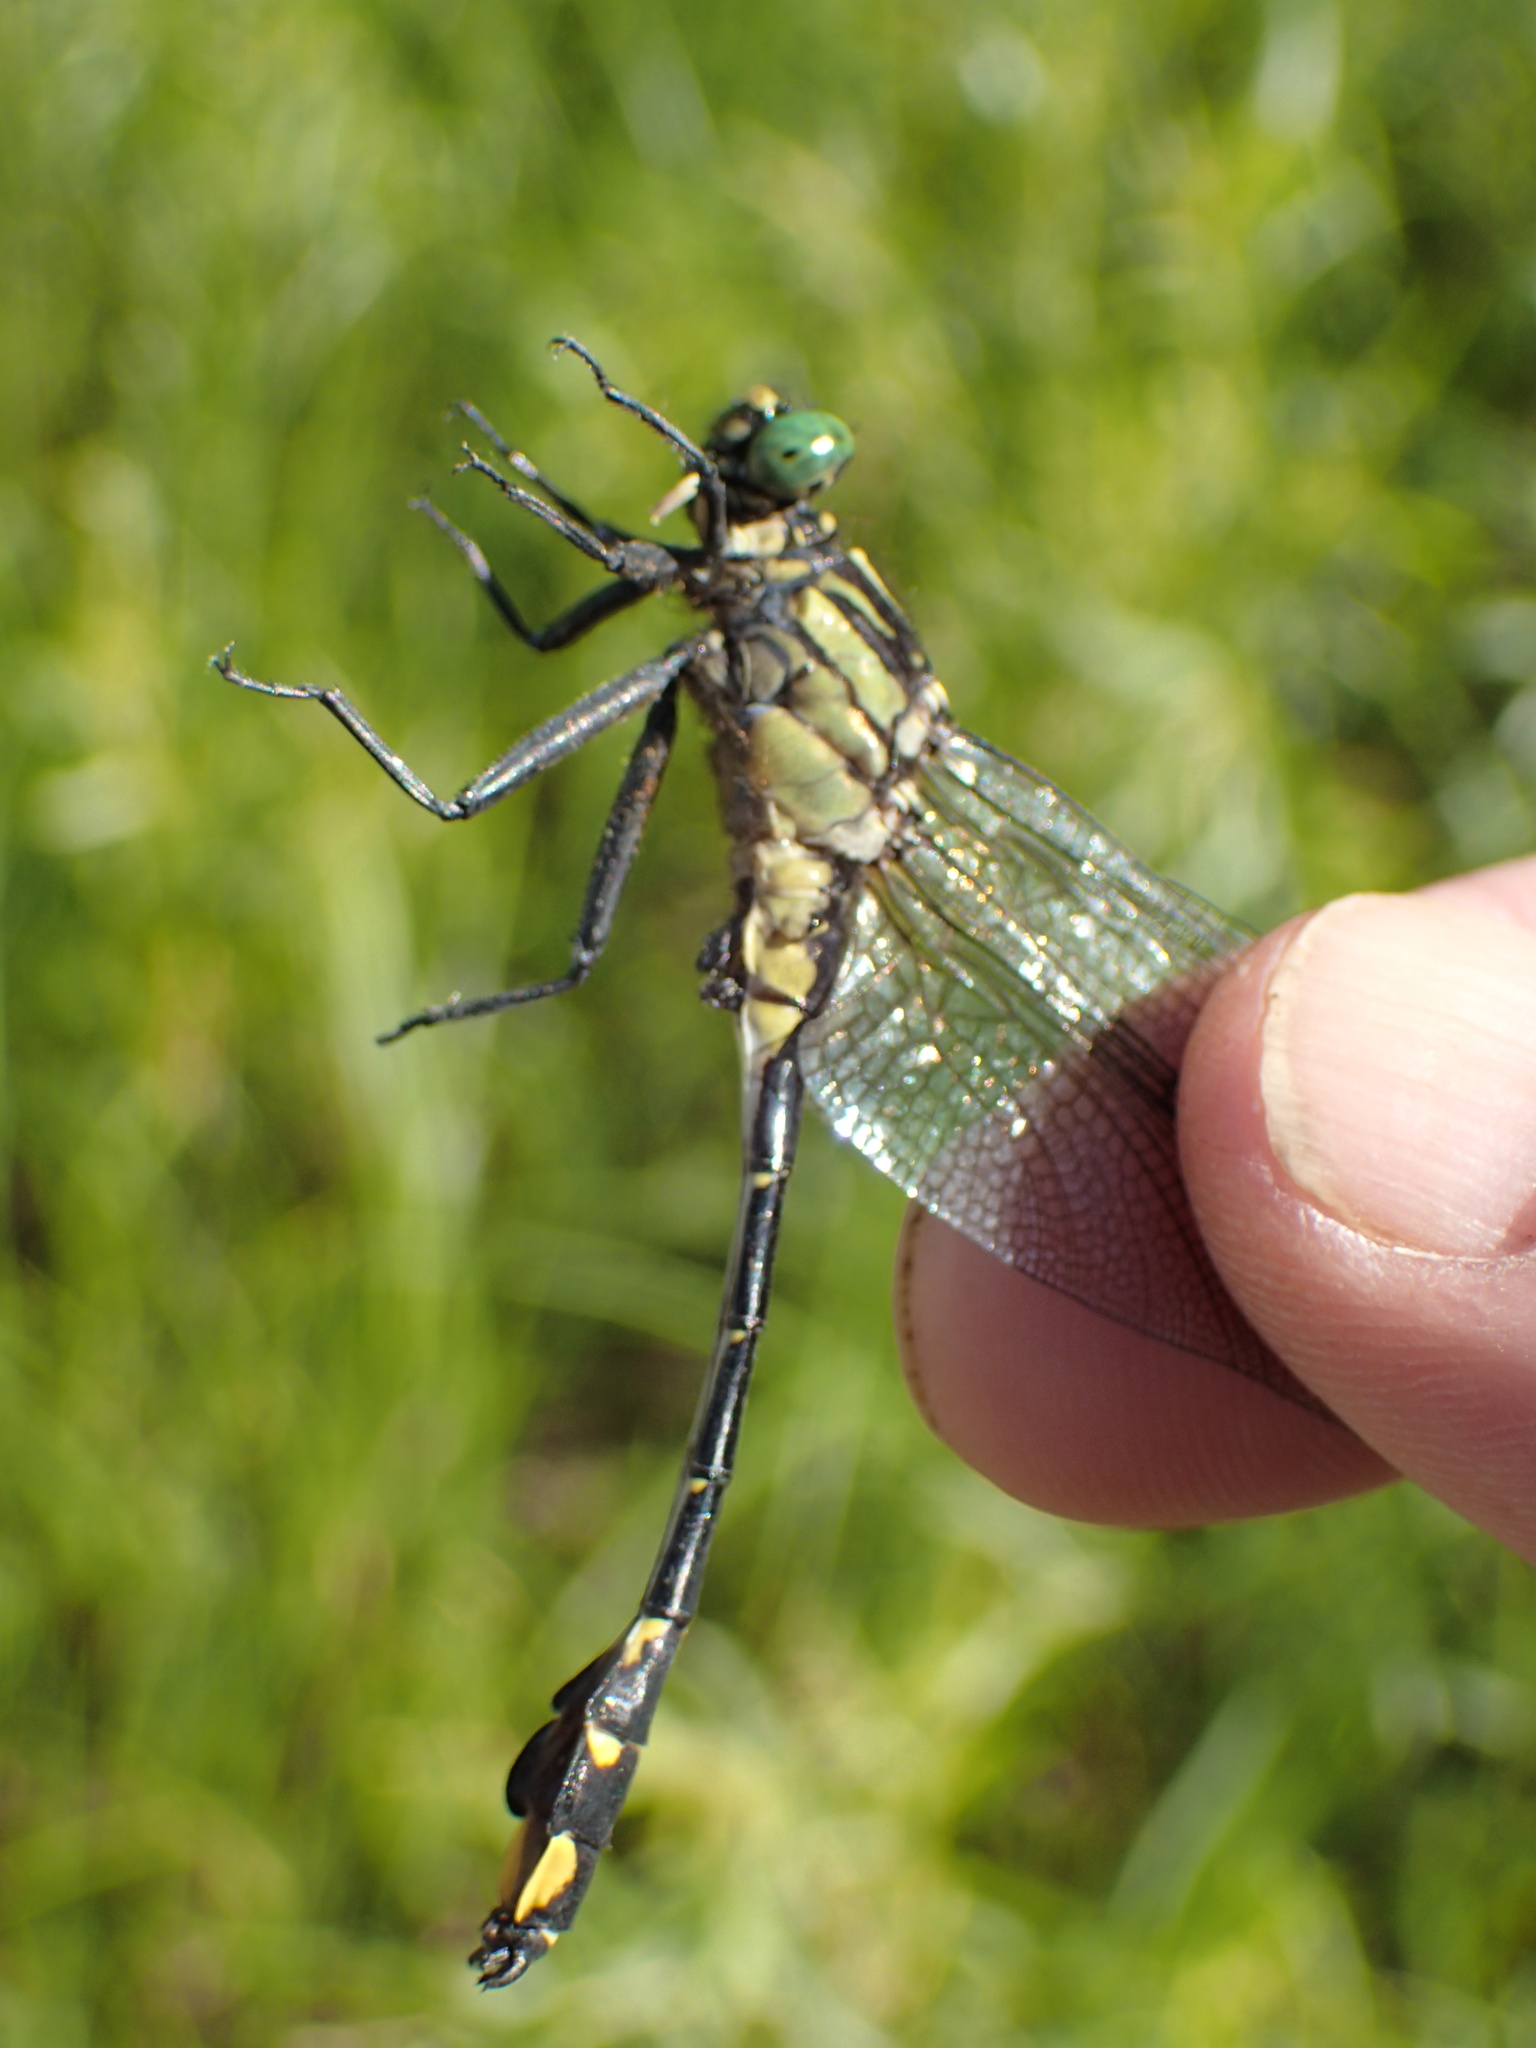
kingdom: Animalia
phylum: Arthropoda
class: Insecta
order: Odonata
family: Gomphidae
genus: Gomphurus
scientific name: Gomphurus vastus
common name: Cobra clubtail
